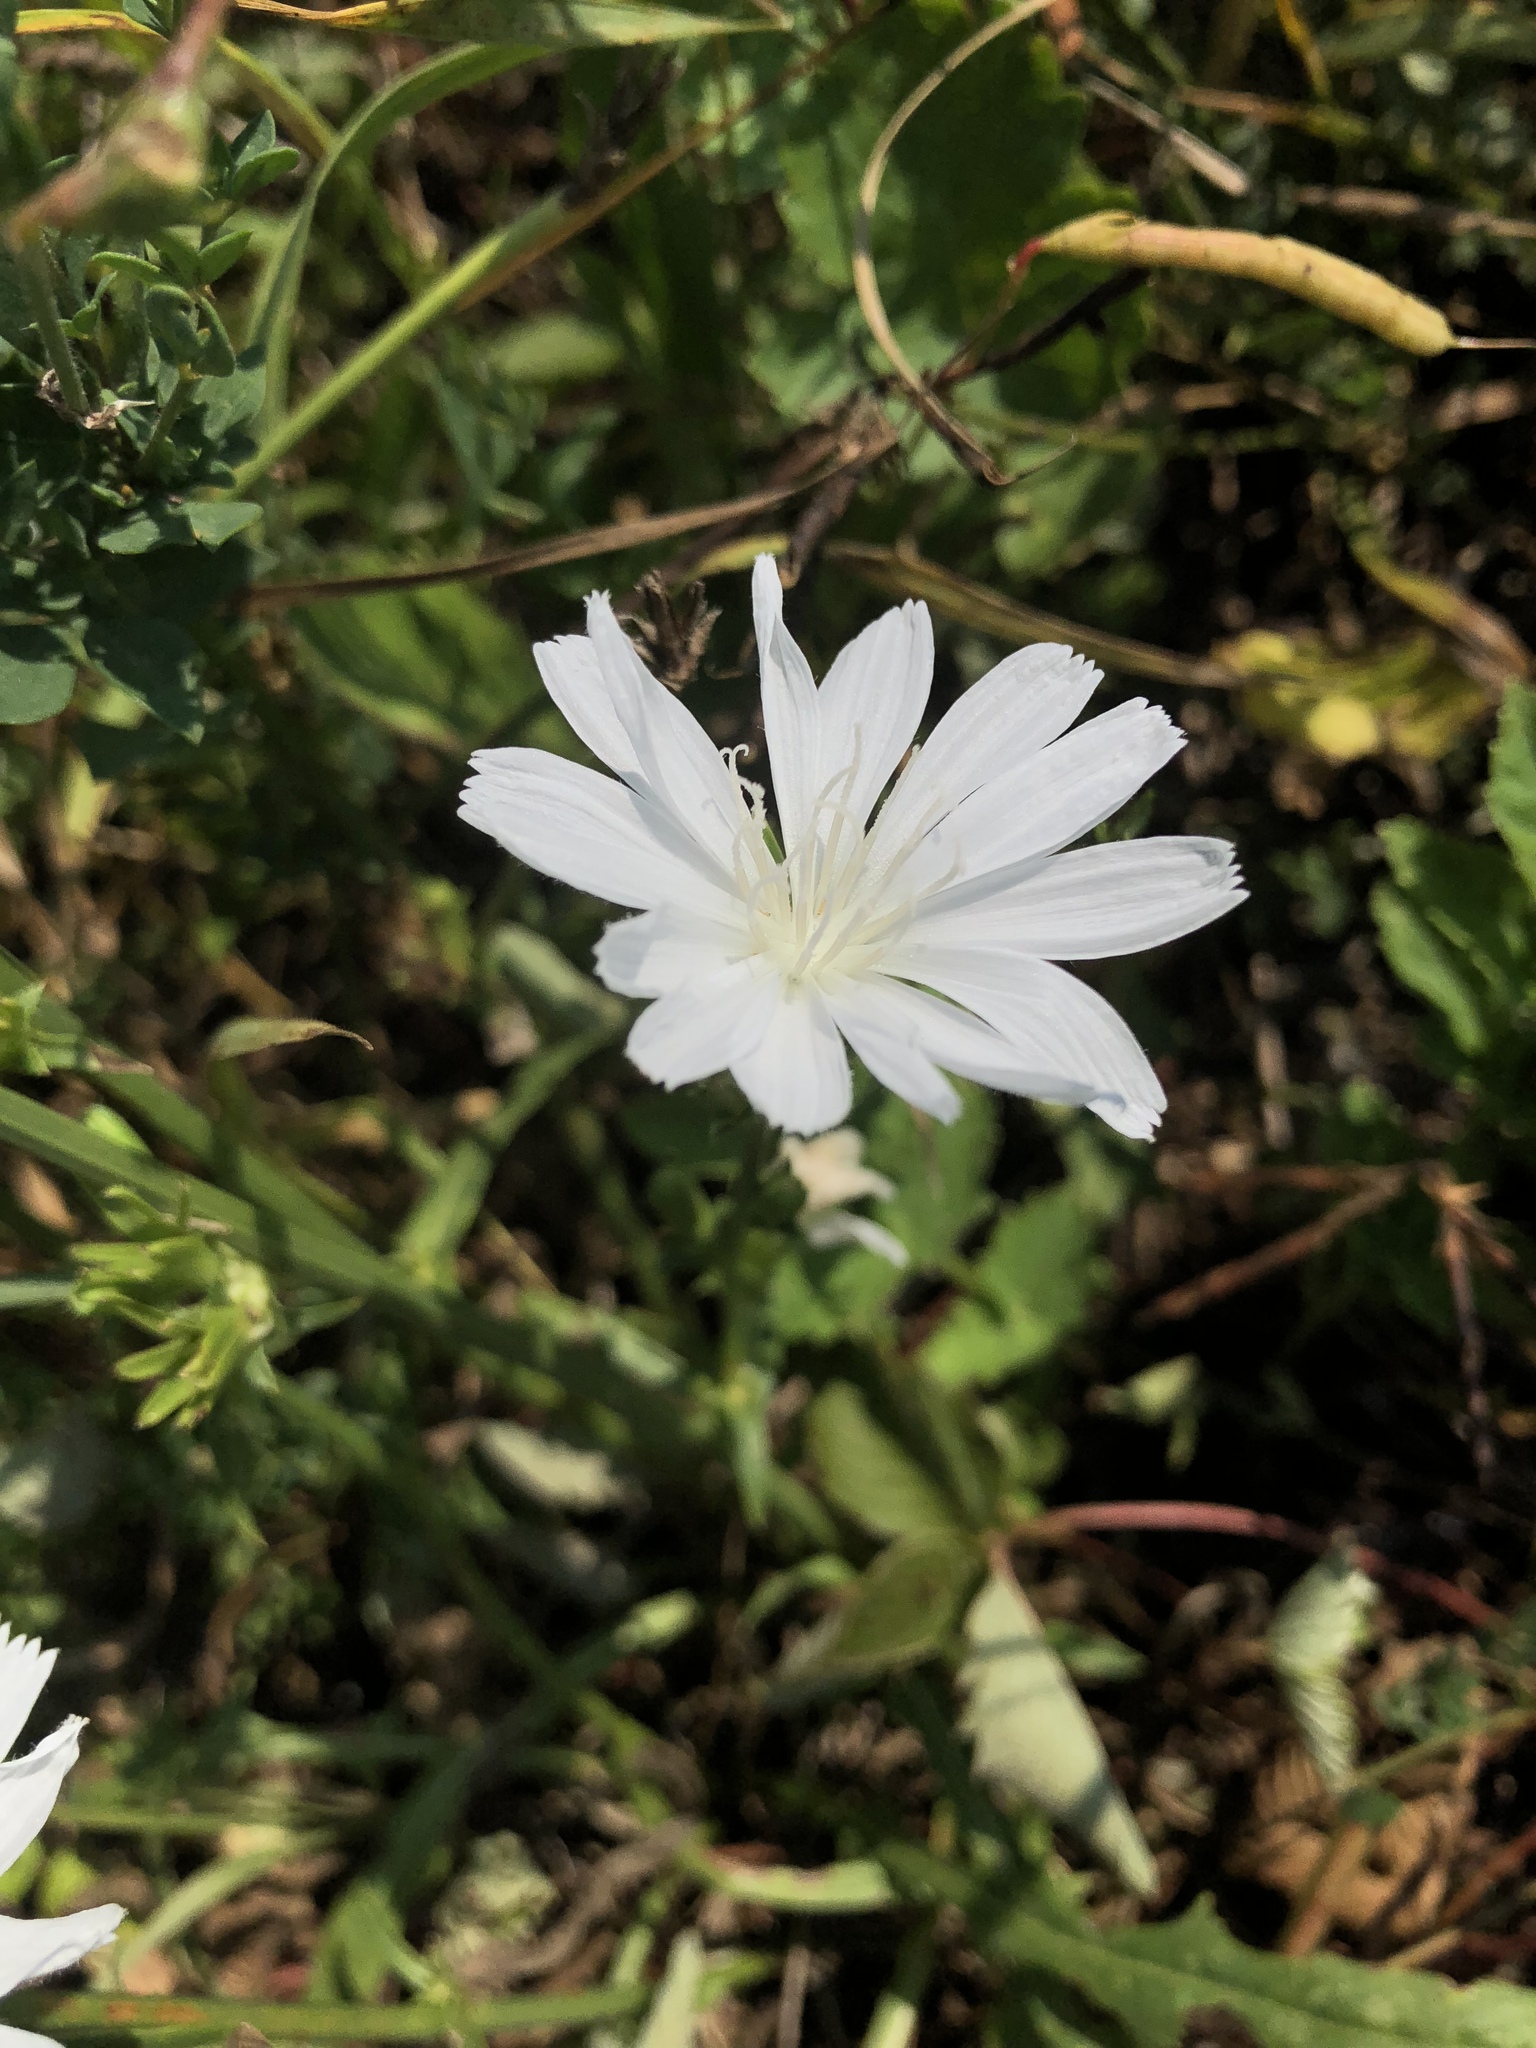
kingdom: Plantae
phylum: Tracheophyta
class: Magnoliopsida
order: Asterales
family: Asteraceae
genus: Cichorium
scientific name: Cichorium intybus
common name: Chicory
